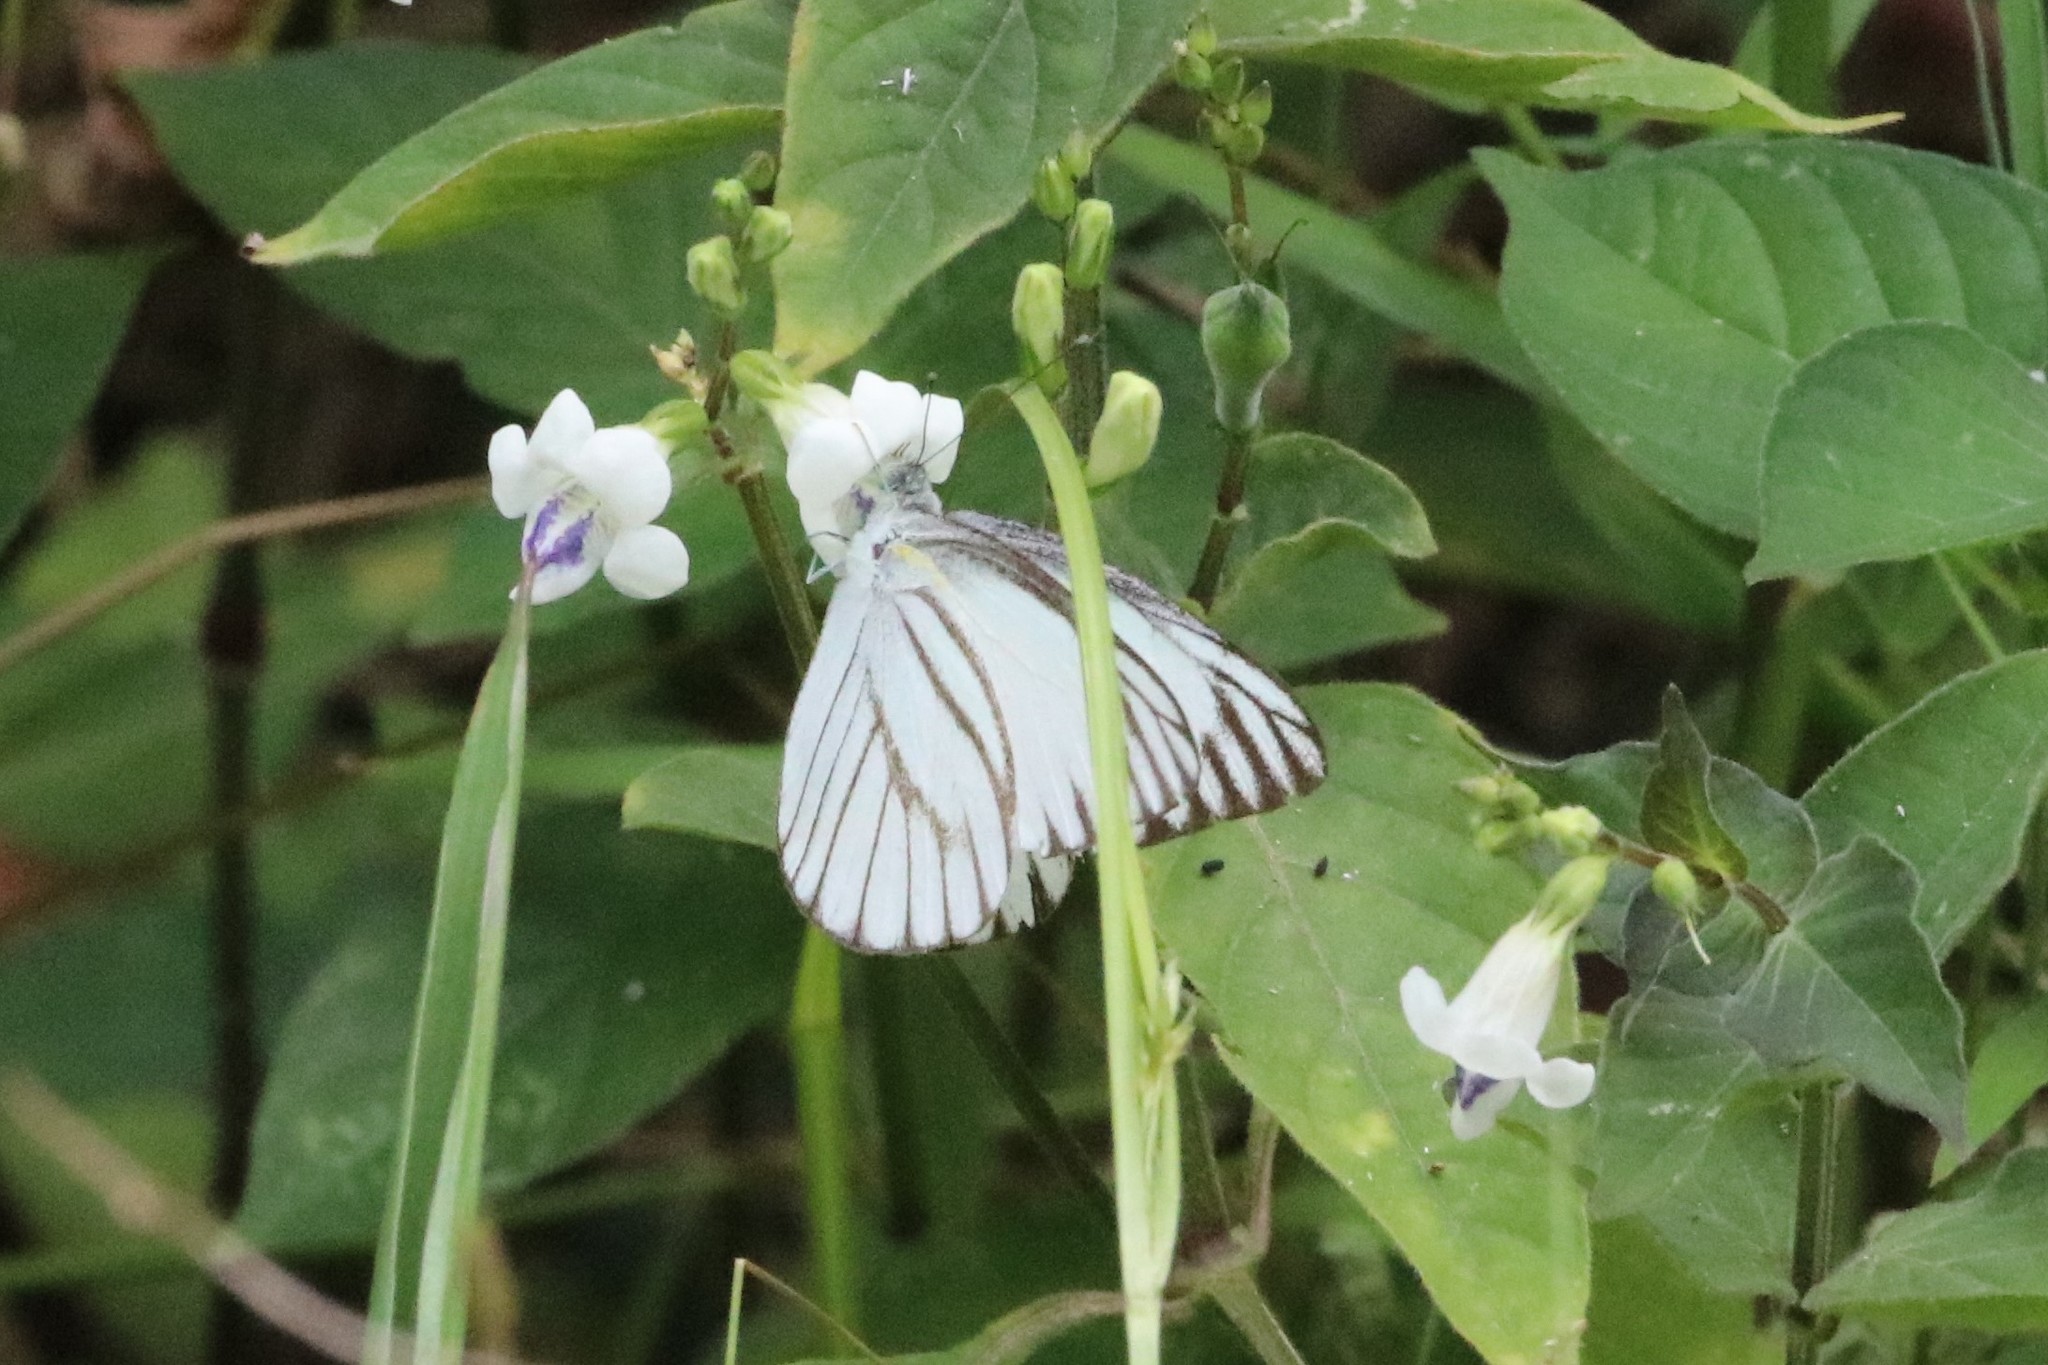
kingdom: Animalia
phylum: Arthropoda
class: Insecta
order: Lepidoptera
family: Pieridae
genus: Appias
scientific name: Appias libythea
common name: Striped albatross
